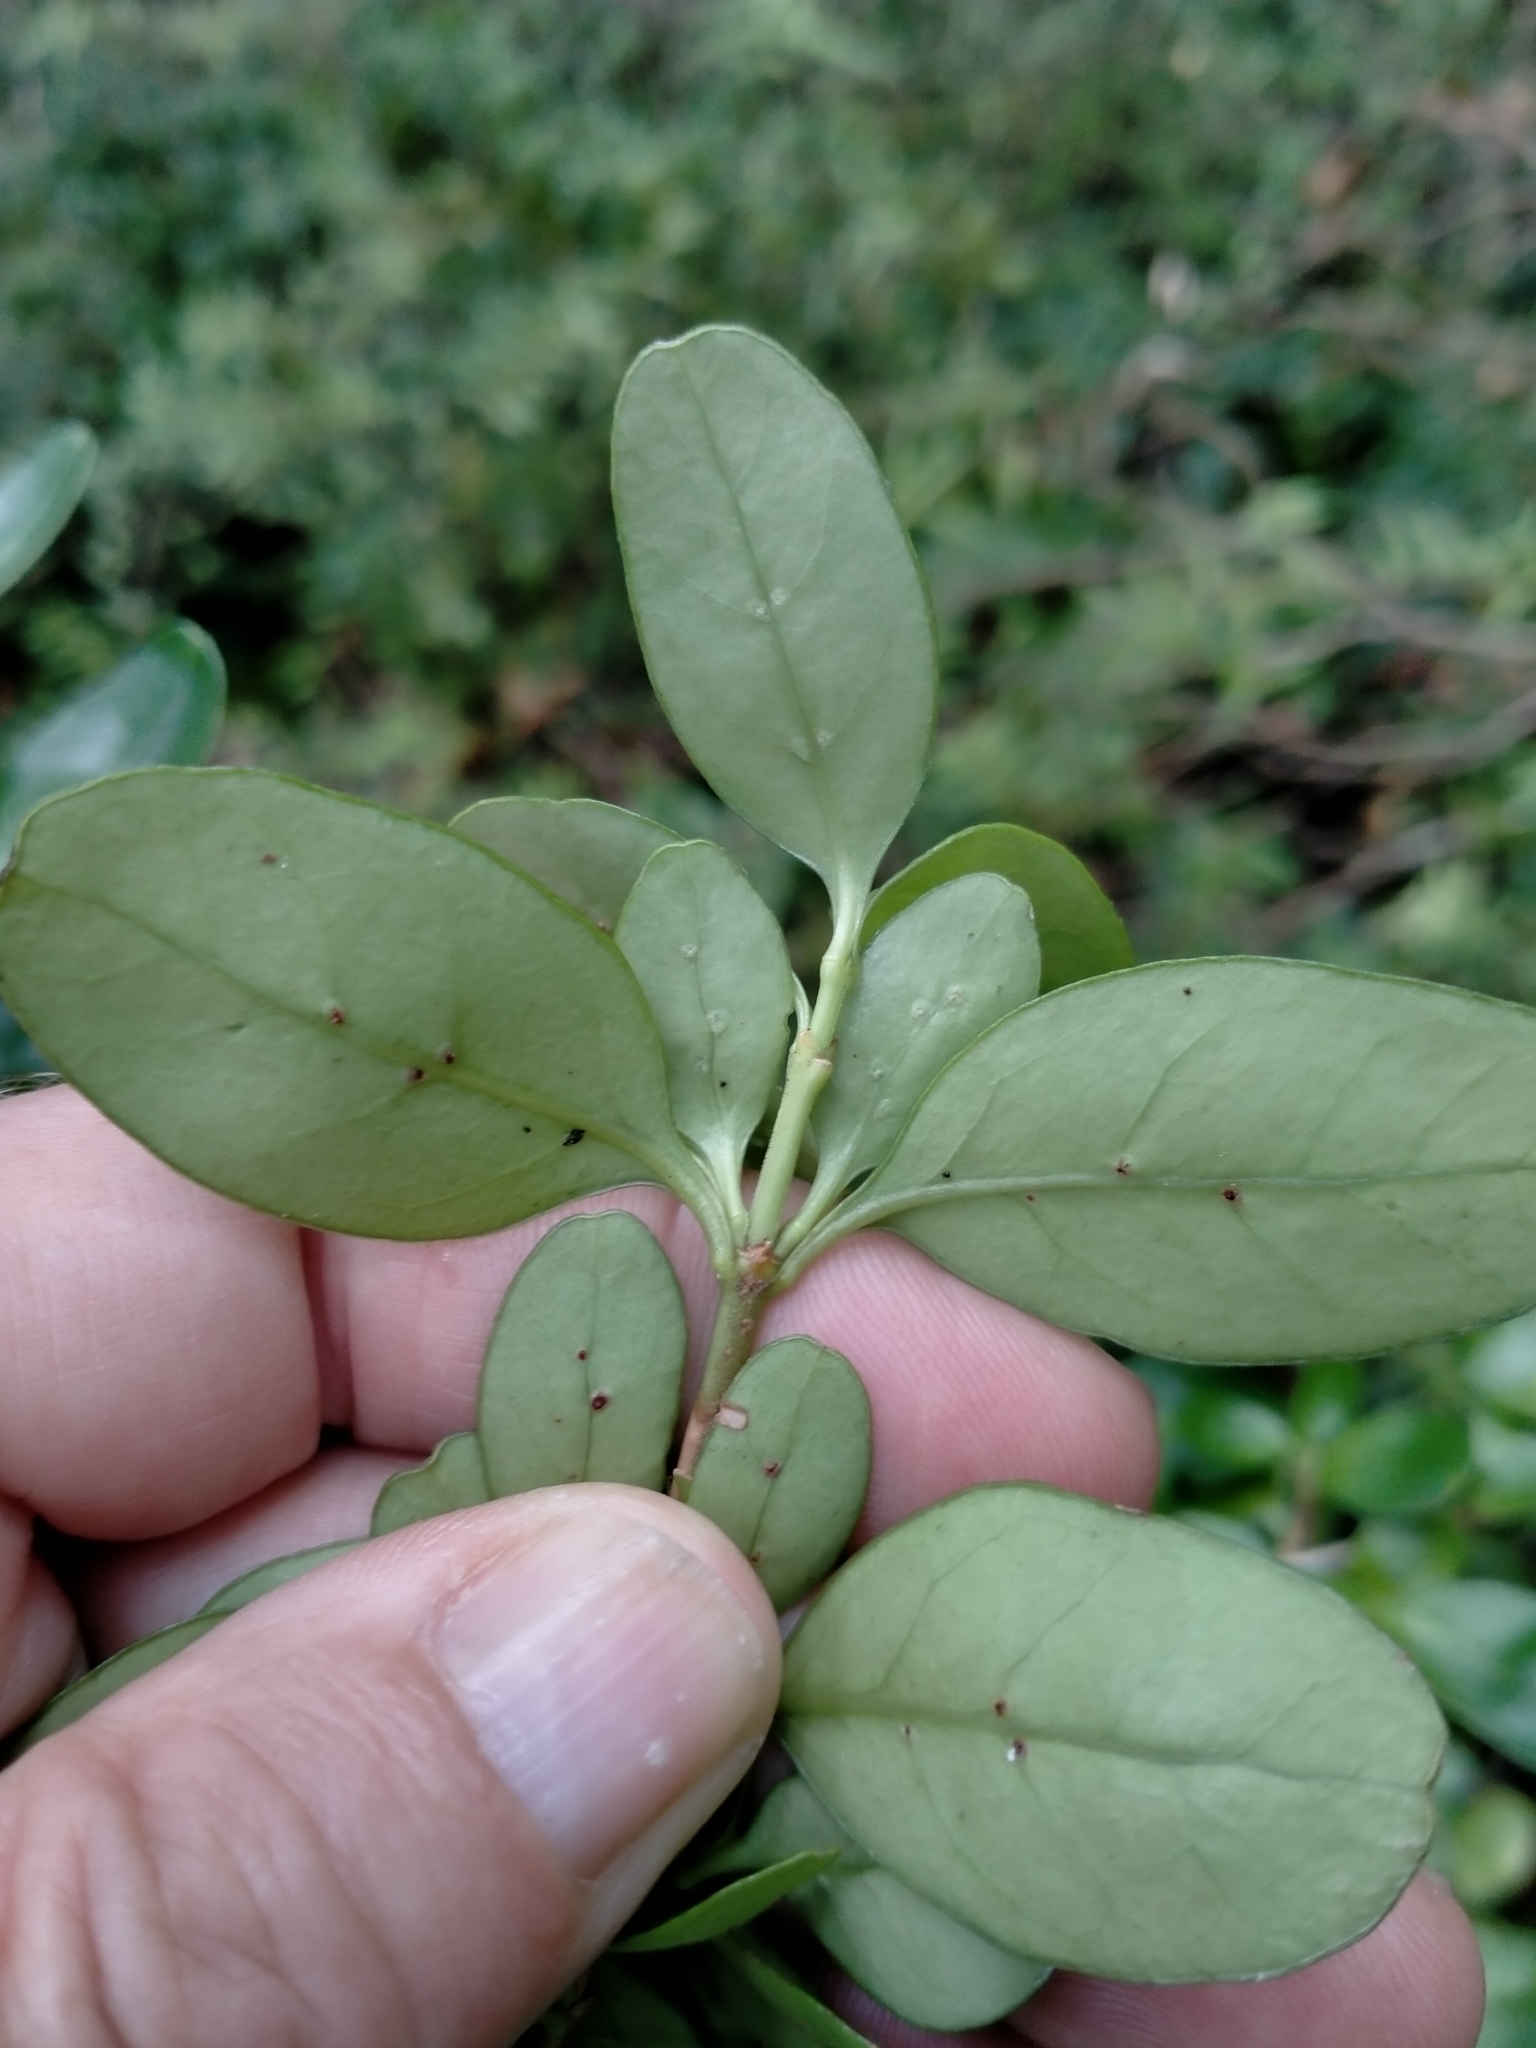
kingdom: Plantae
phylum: Tracheophyta
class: Magnoliopsida
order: Gentianales
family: Rubiaceae
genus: Coprosma
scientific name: Coprosma colensoi
